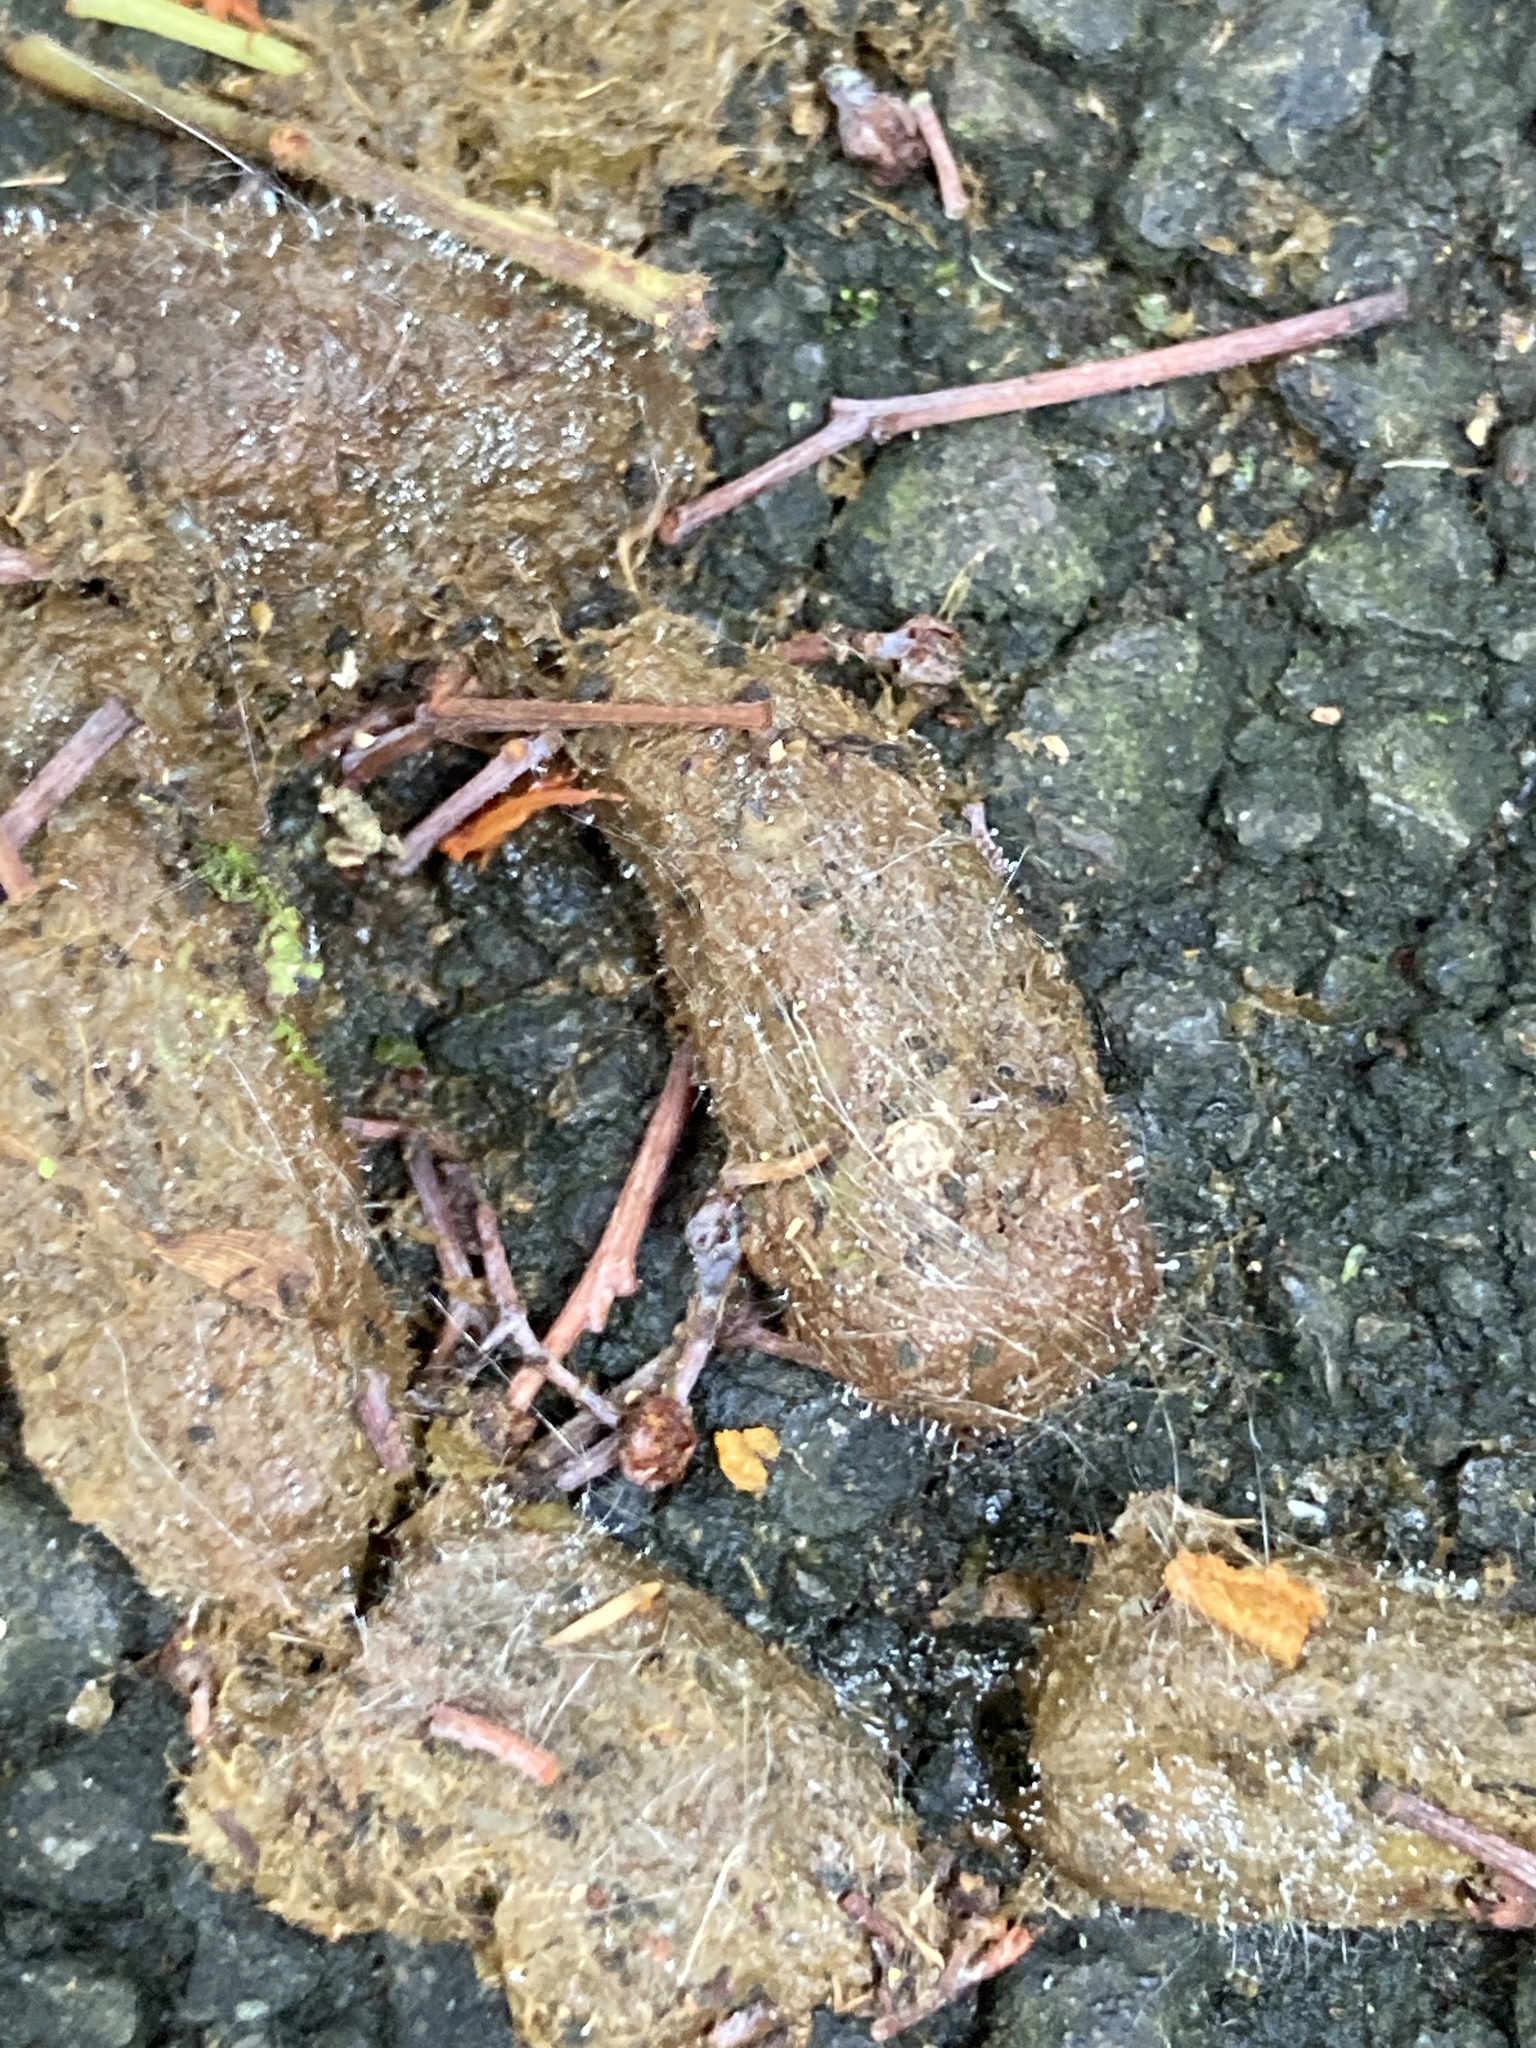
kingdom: Animalia
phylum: Chordata
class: Mammalia
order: Diprotodontia
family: Phalangeridae
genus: Trichosurus
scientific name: Trichosurus vulpecula
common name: Common brushtail
